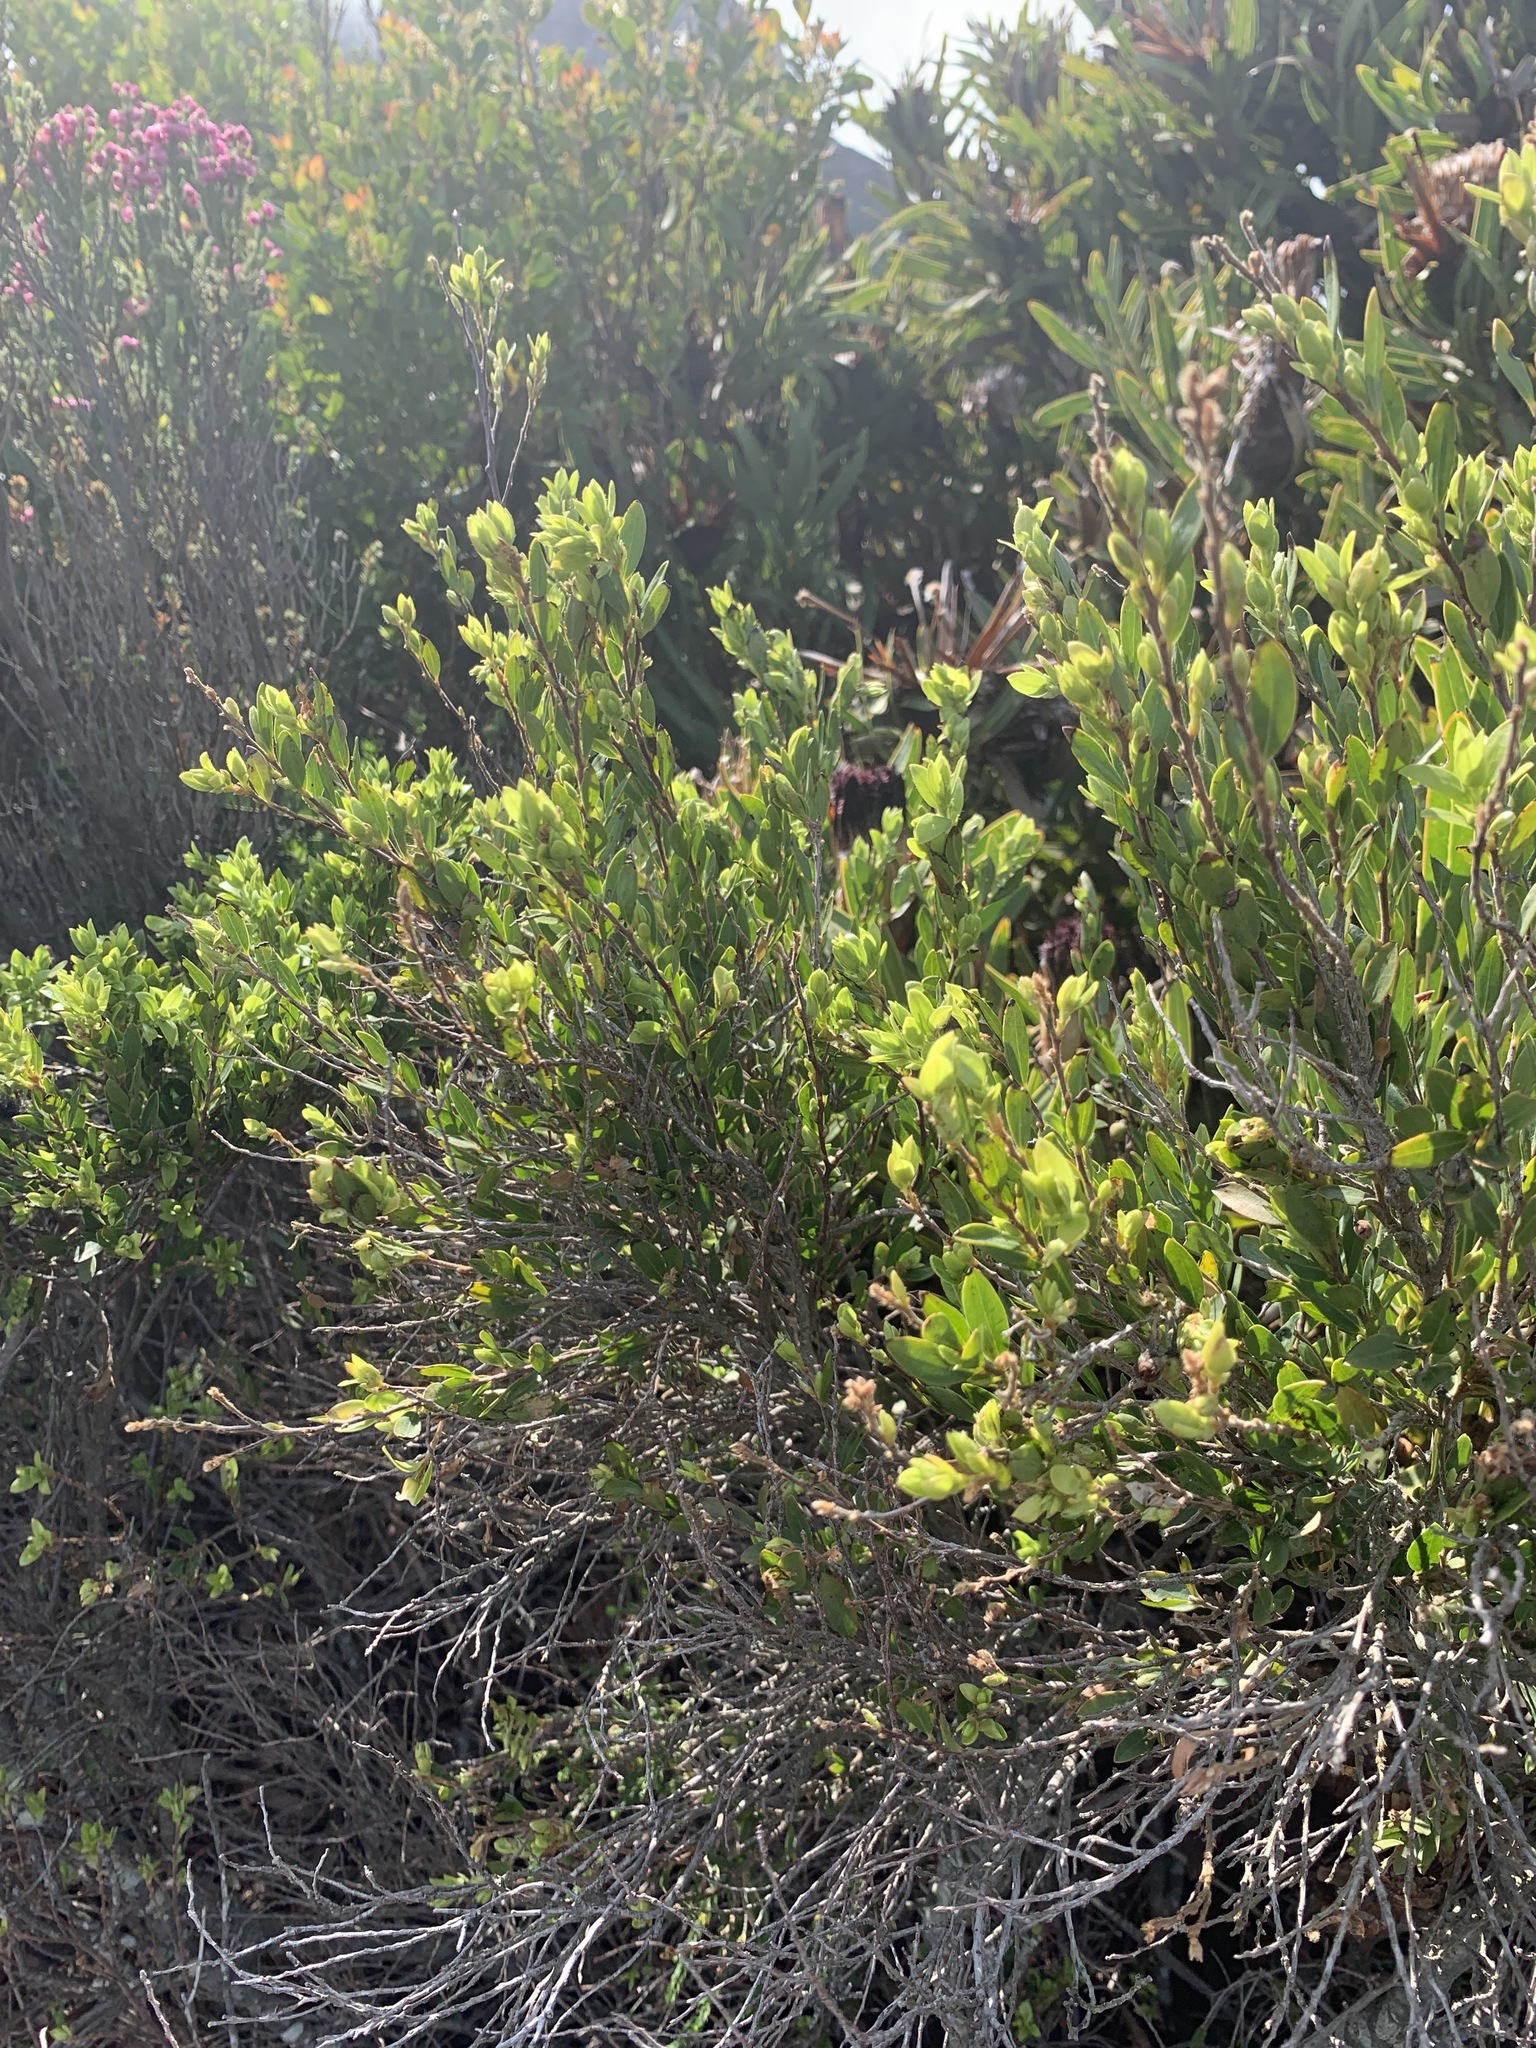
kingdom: Plantae
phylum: Tracheophyta
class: Magnoliopsida
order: Ericales
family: Ebenaceae
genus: Diospyros
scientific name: Diospyros glabra
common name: Fynbos star apple
